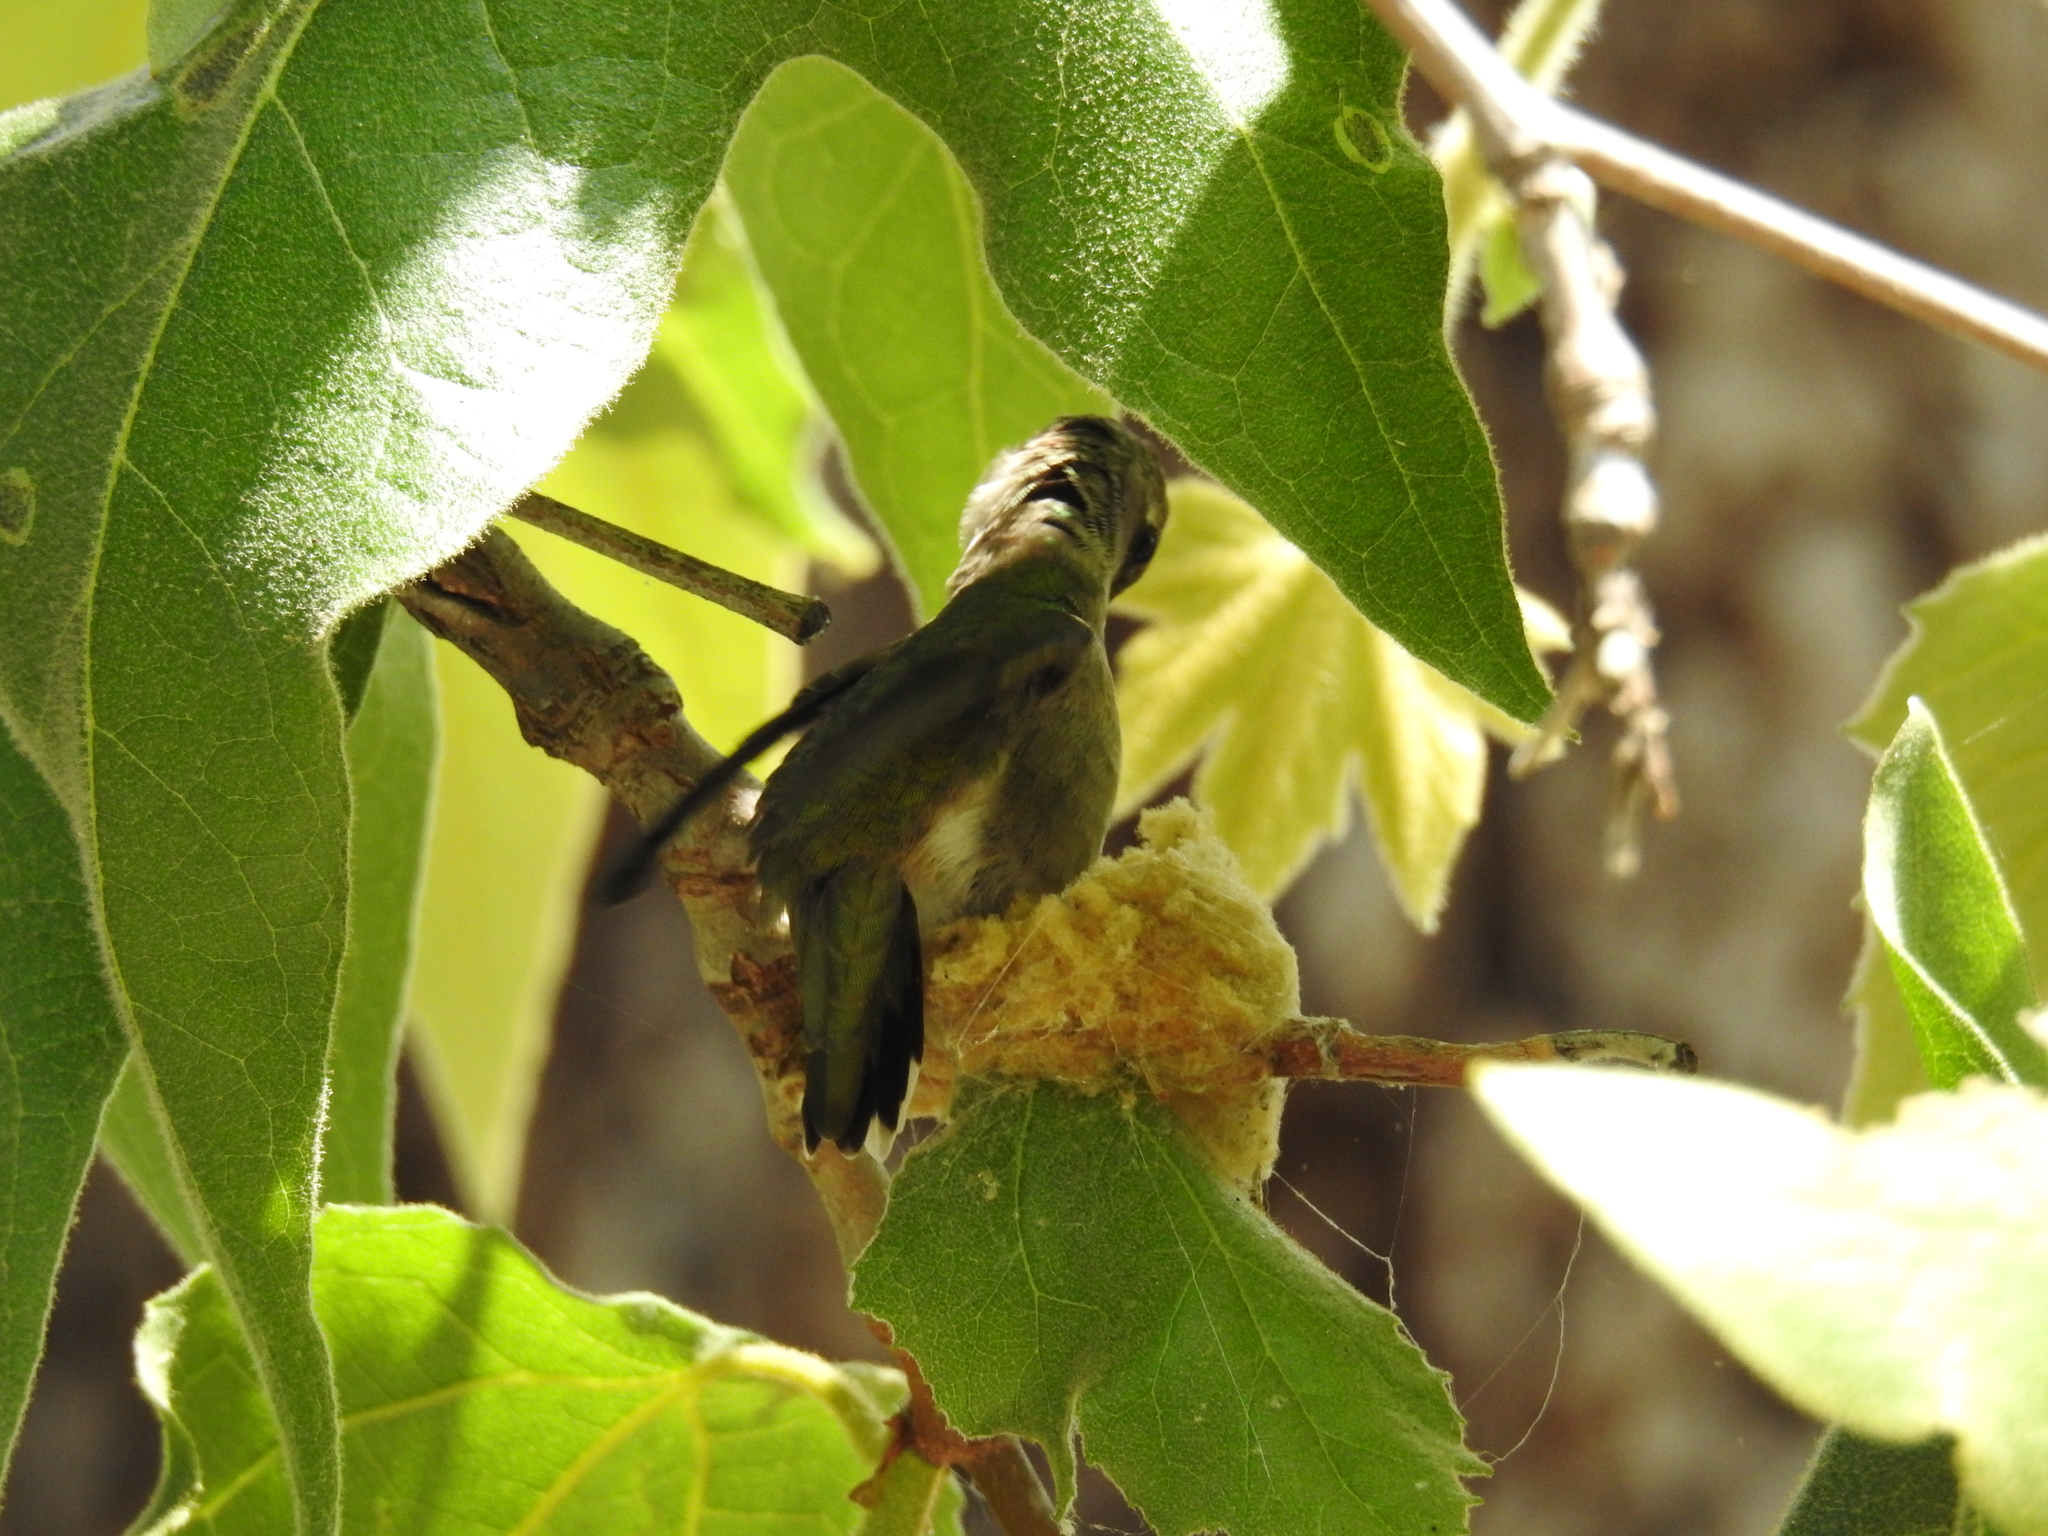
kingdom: Animalia
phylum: Chordata
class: Aves
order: Apodiformes
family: Trochilidae
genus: Archilochus
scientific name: Archilochus alexandri
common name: Black-chinned hummingbird
